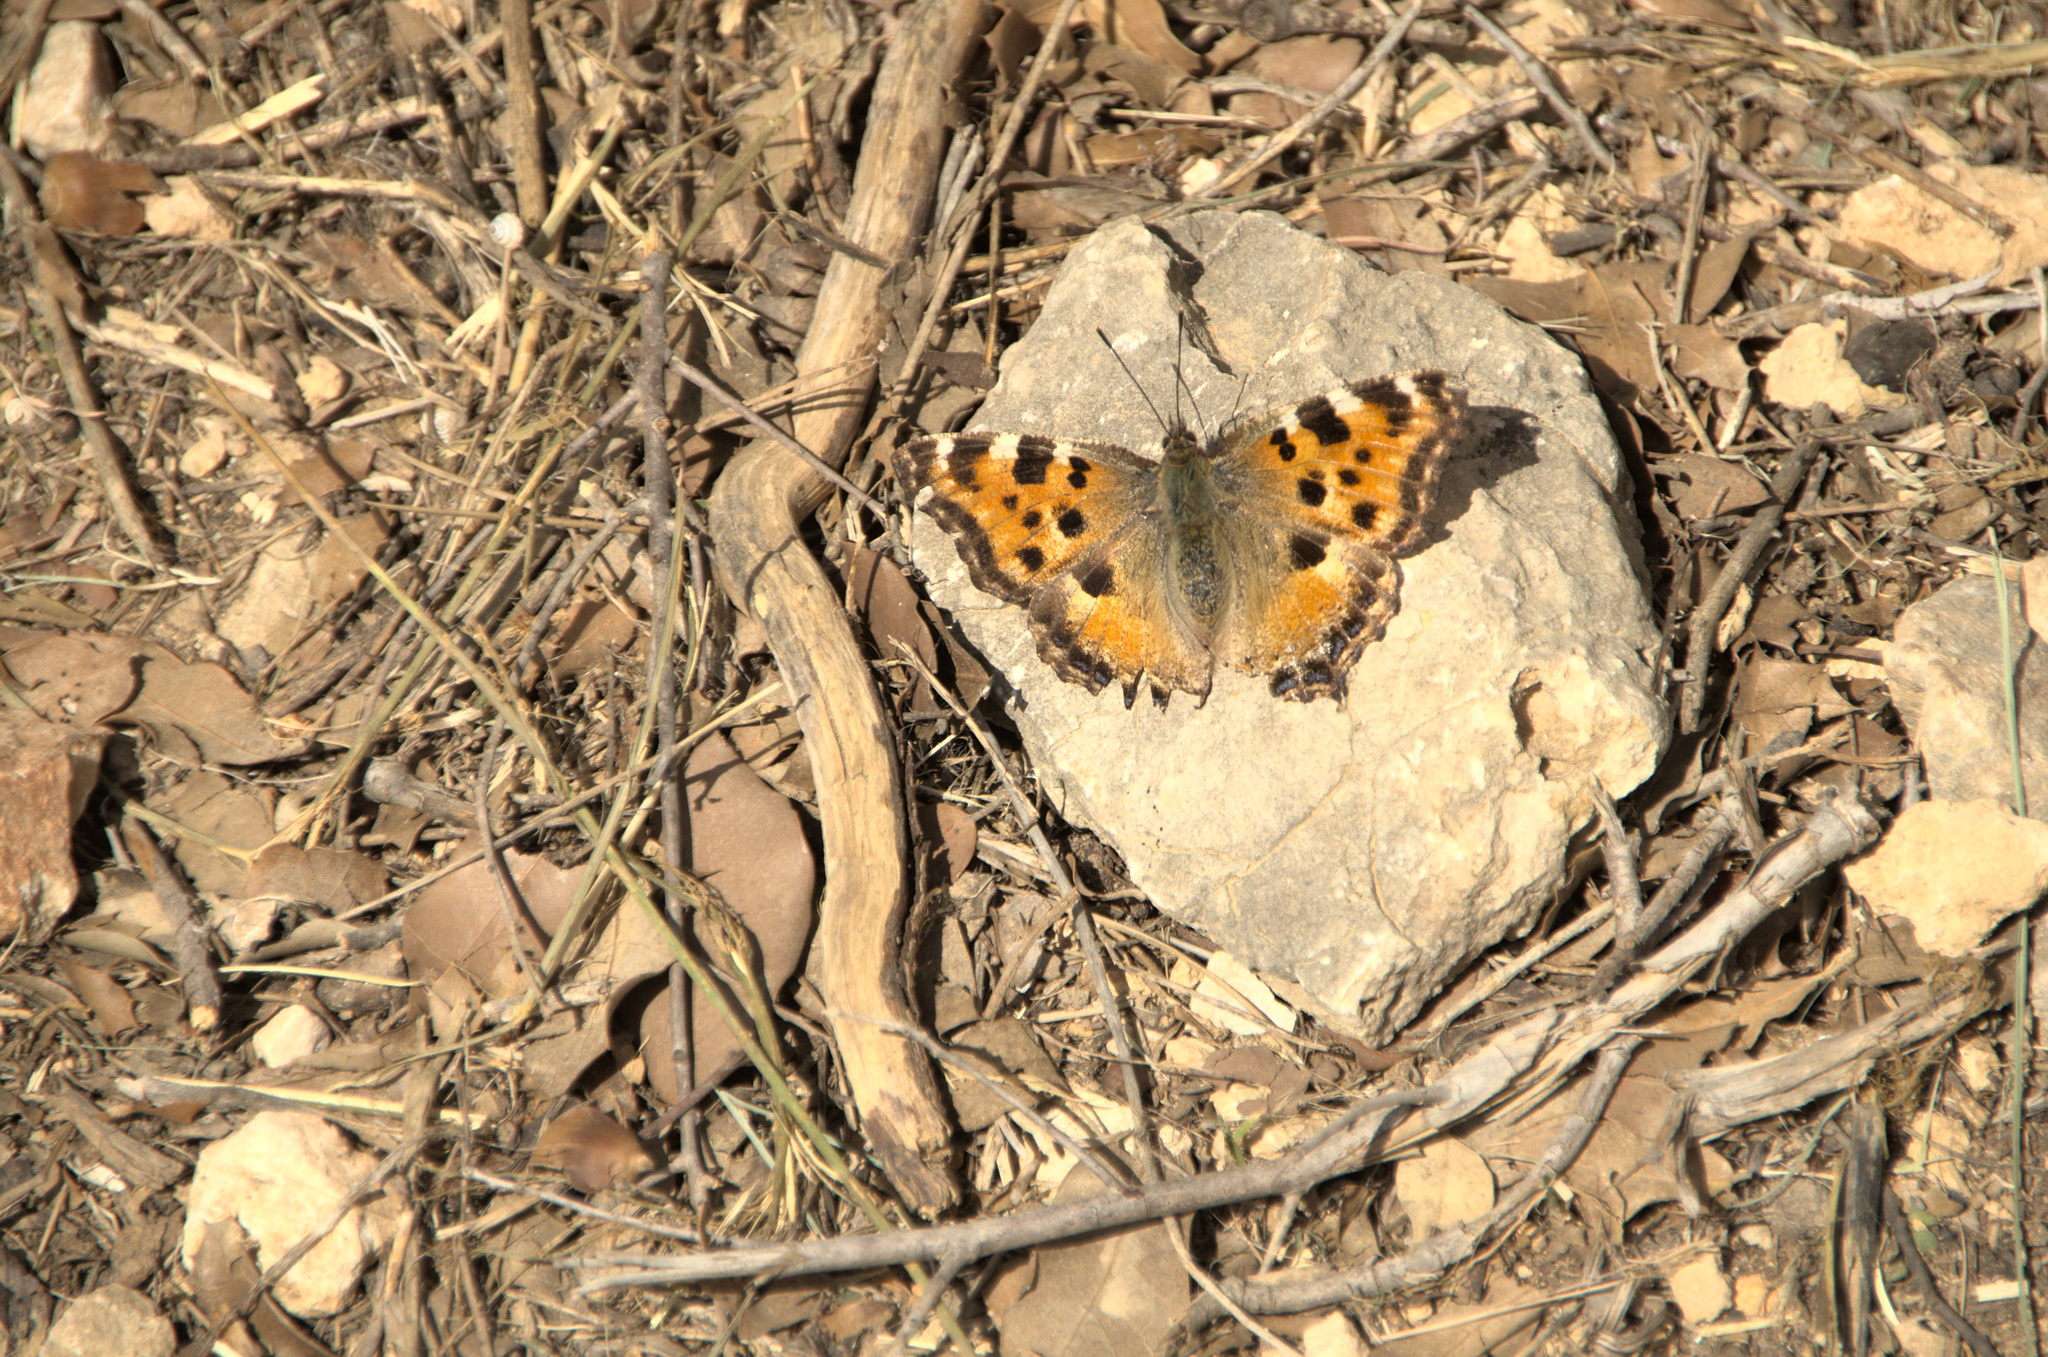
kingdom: Animalia
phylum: Arthropoda
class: Insecta
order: Lepidoptera
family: Nymphalidae
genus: Nymphalis
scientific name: Nymphalis polychloros
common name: Large tortoiseshell
